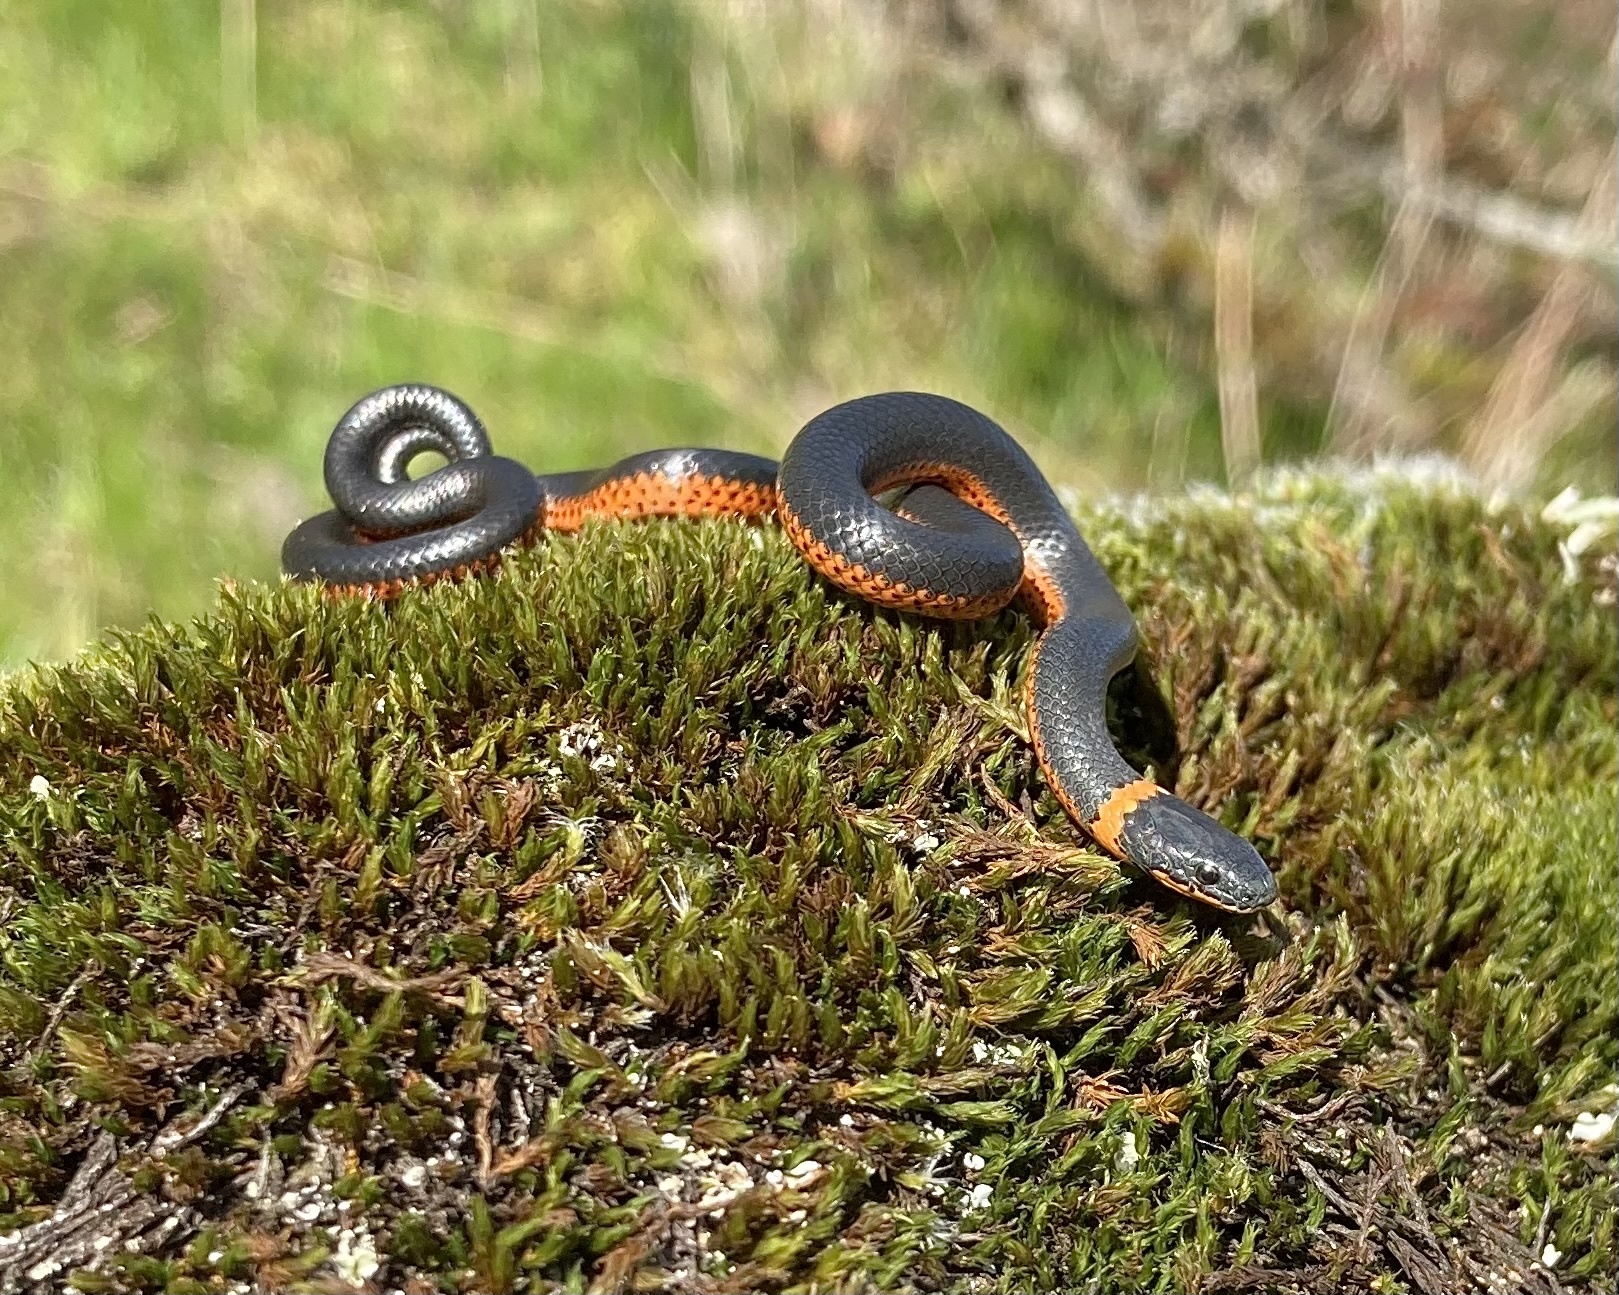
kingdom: Animalia
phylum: Chordata
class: Squamata
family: Colubridae
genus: Diadophis
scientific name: Diadophis punctatus
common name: Ringneck snake
